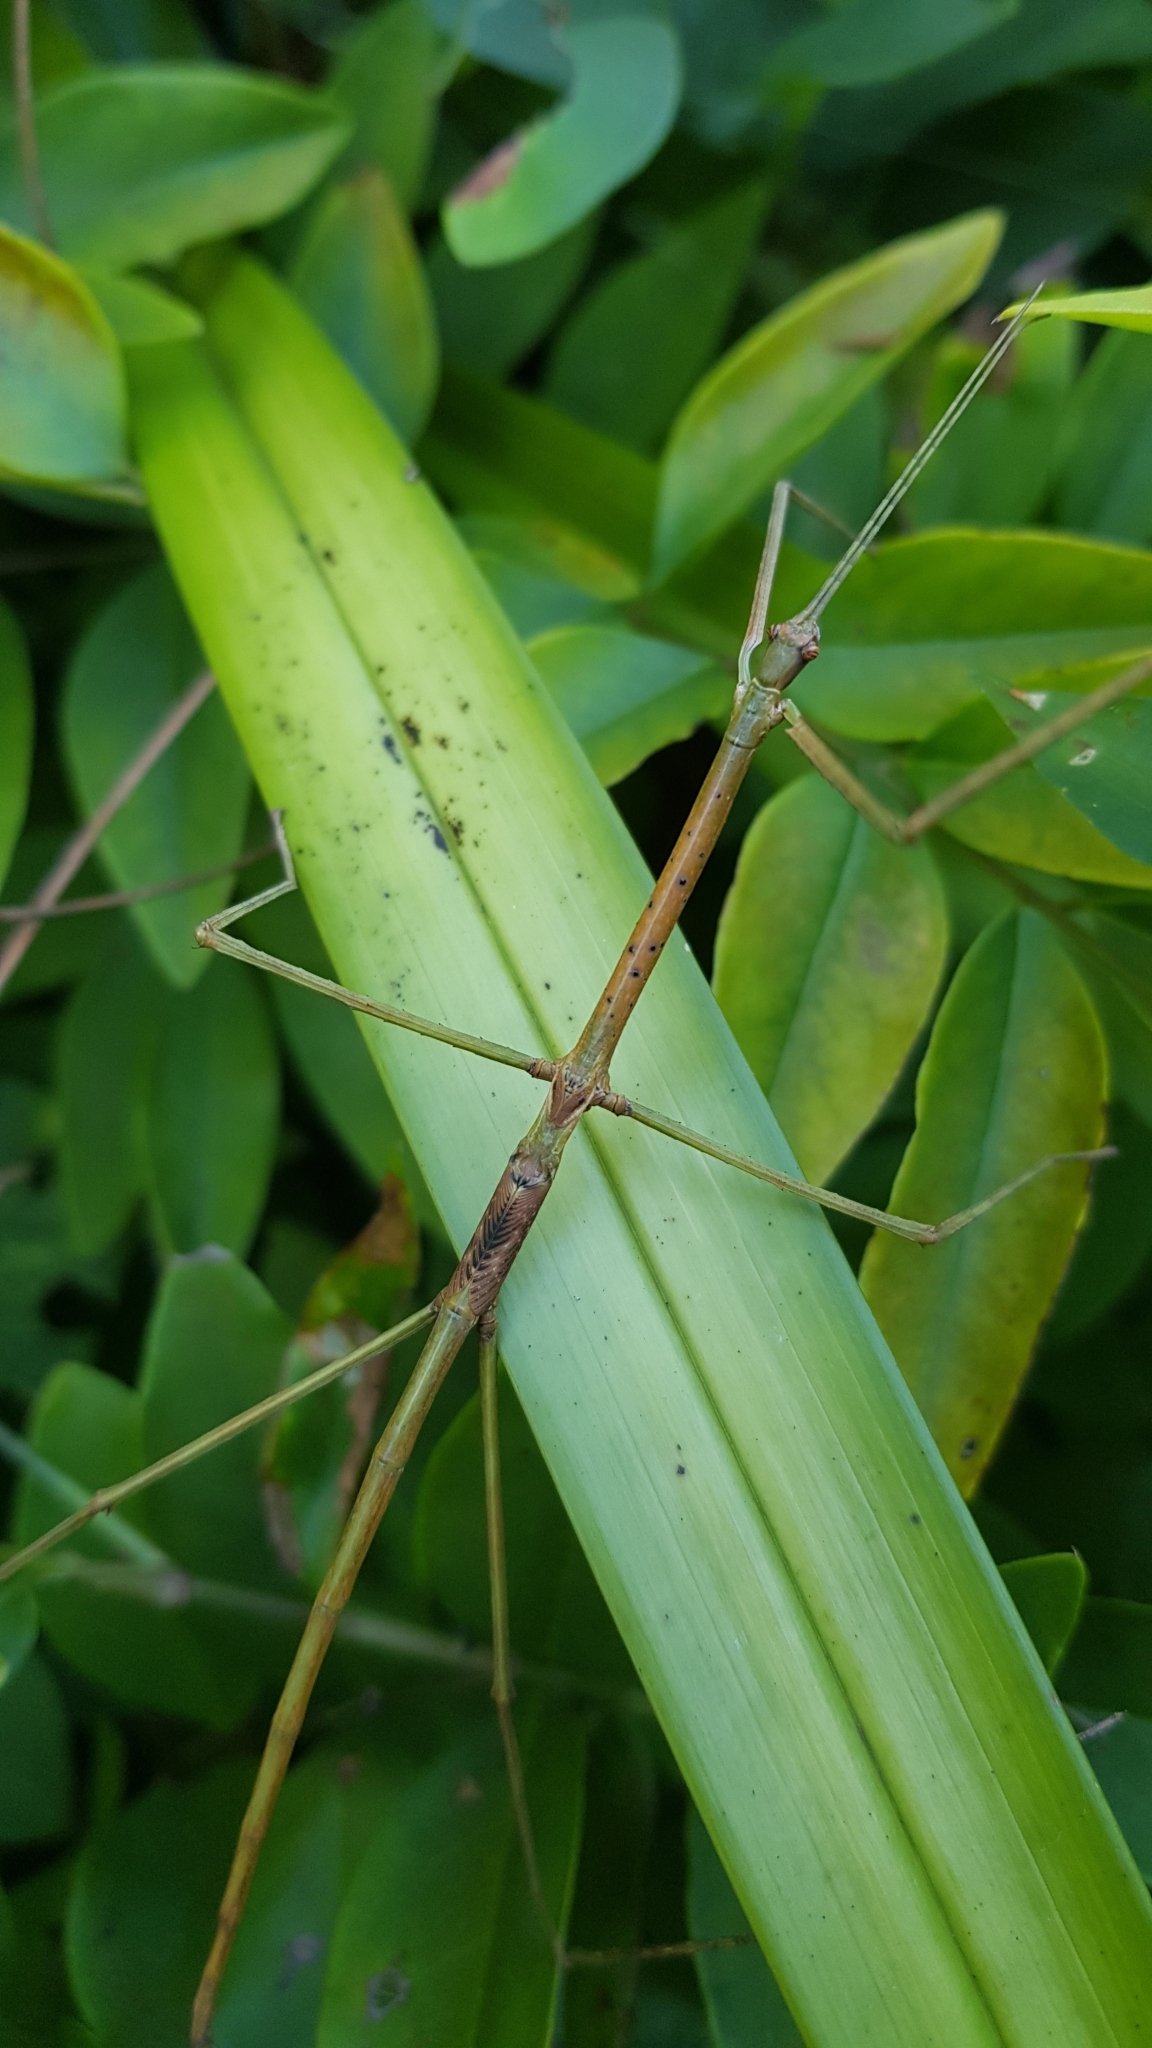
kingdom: Animalia
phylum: Arthropoda
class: Insecta
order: Phasmida
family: Phasmatidae
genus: Ctenomorpha
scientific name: Ctenomorpha marginipennis
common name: Margined-winged stick-insect
